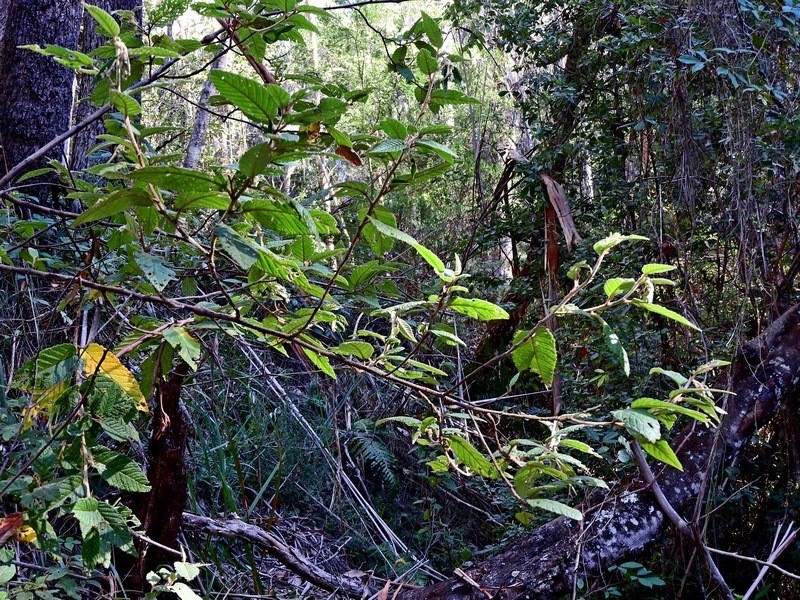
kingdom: Plantae
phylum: Tracheophyta
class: Magnoliopsida
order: Rosales
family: Rhamnaceae
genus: Pomaderris
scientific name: Pomaderris aspera
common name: Hazel pomaderris
